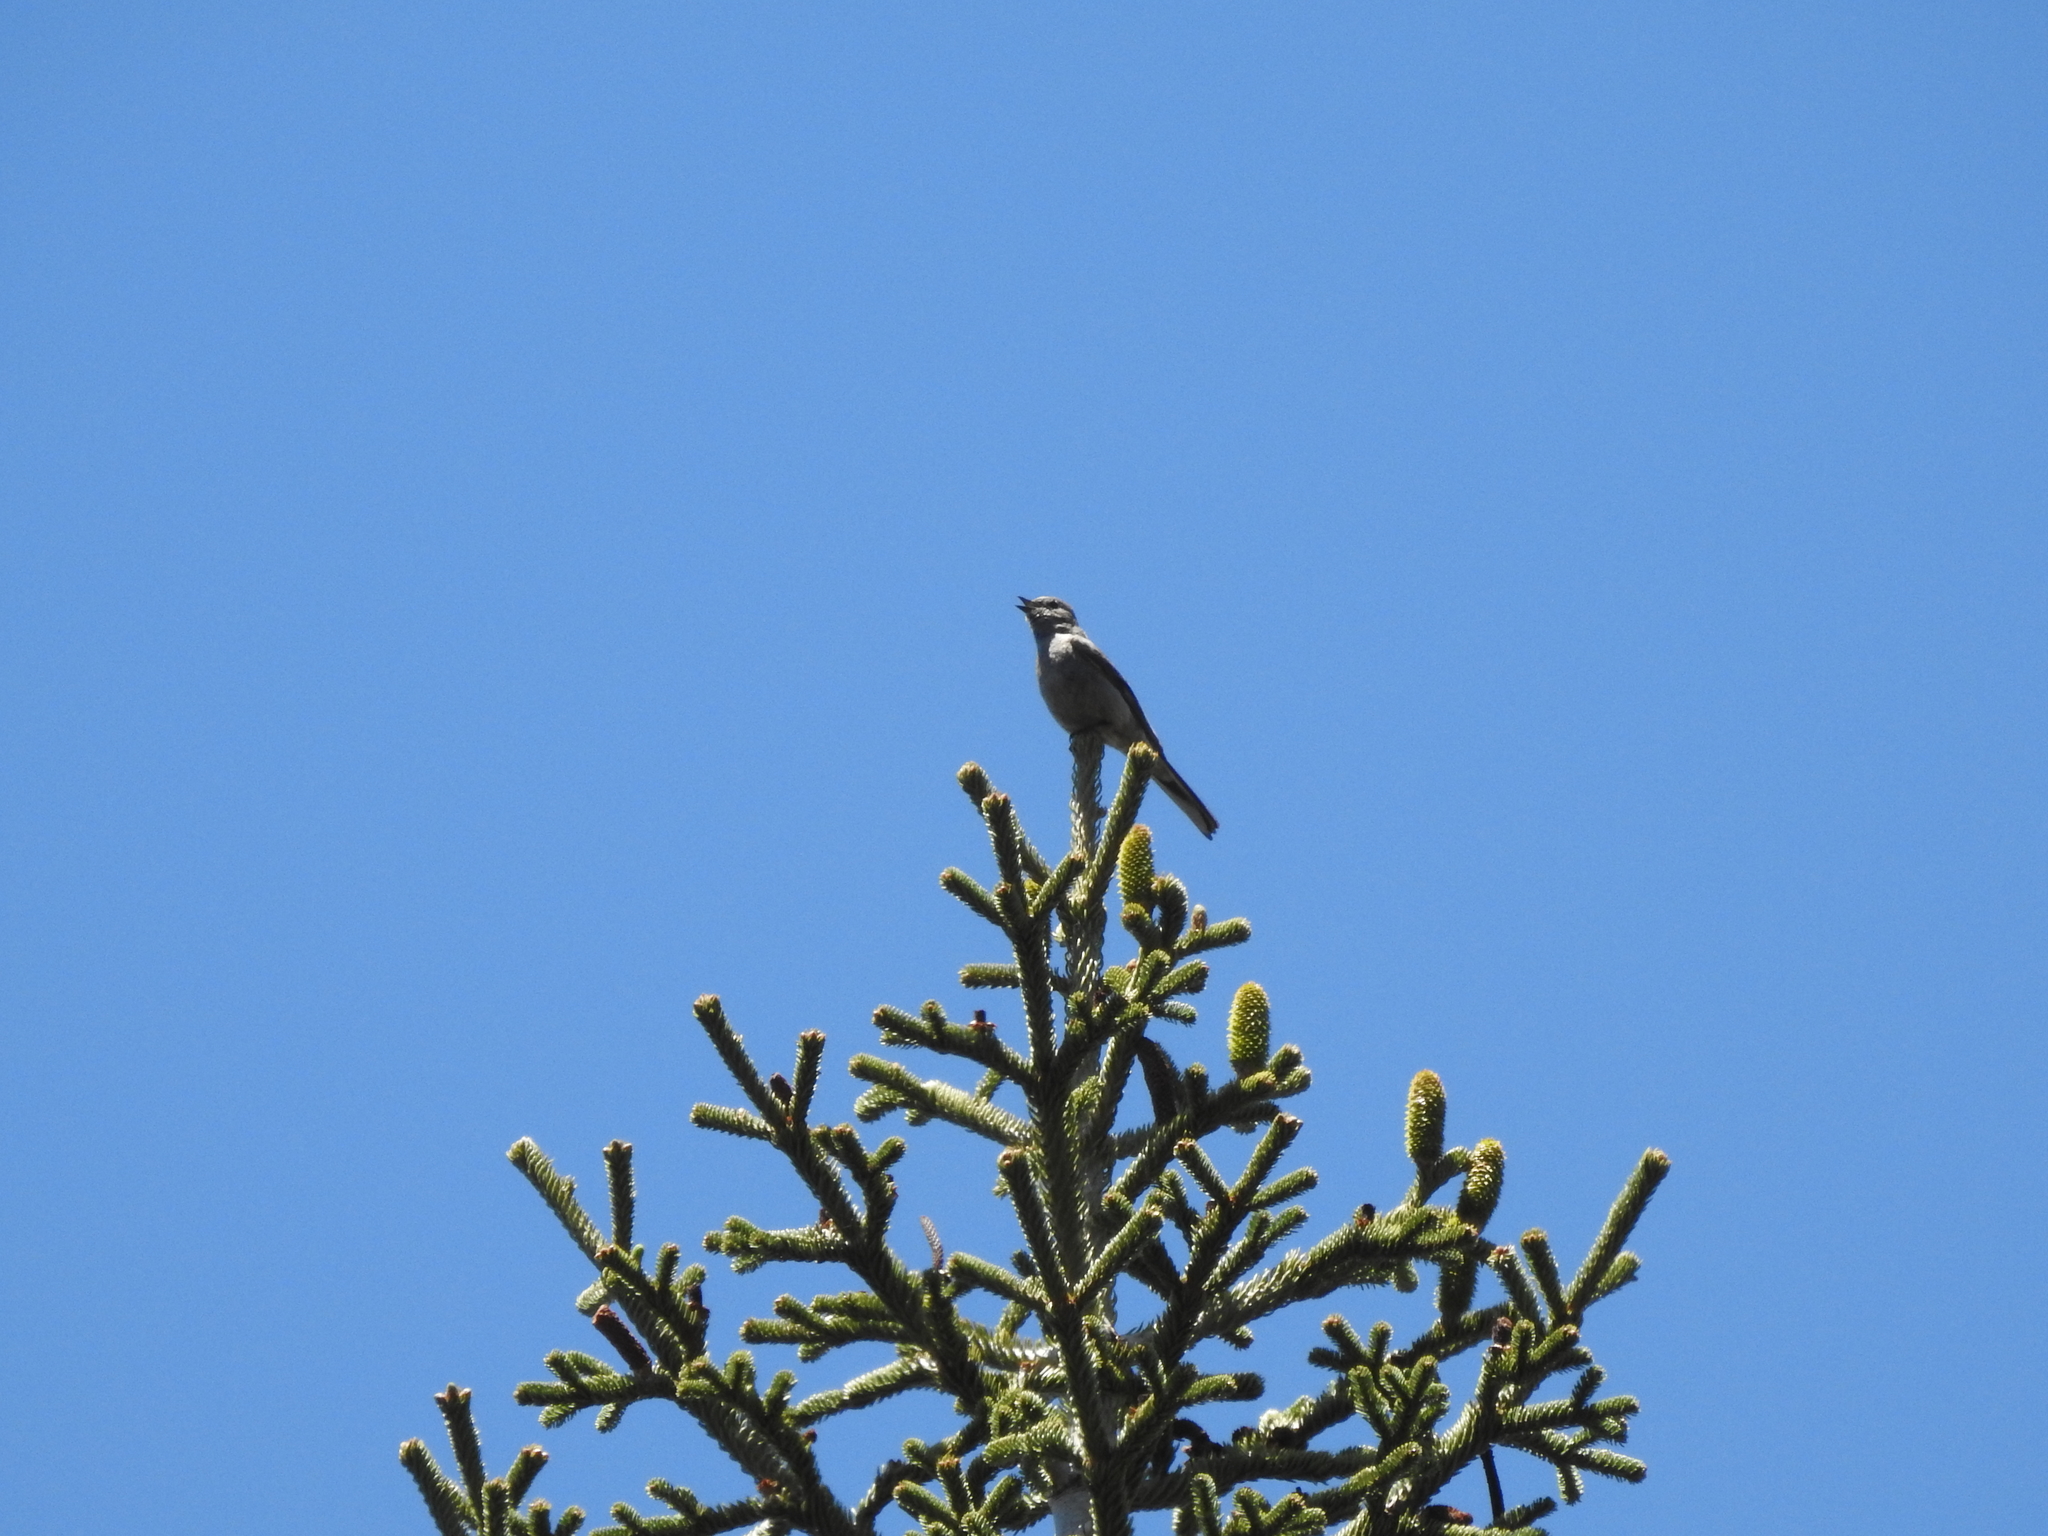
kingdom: Animalia
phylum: Chordata
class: Aves
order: Passeriformes
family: Turdidae
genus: Myadestes
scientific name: Myadestes townsendi
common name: Townsend's solitaire
